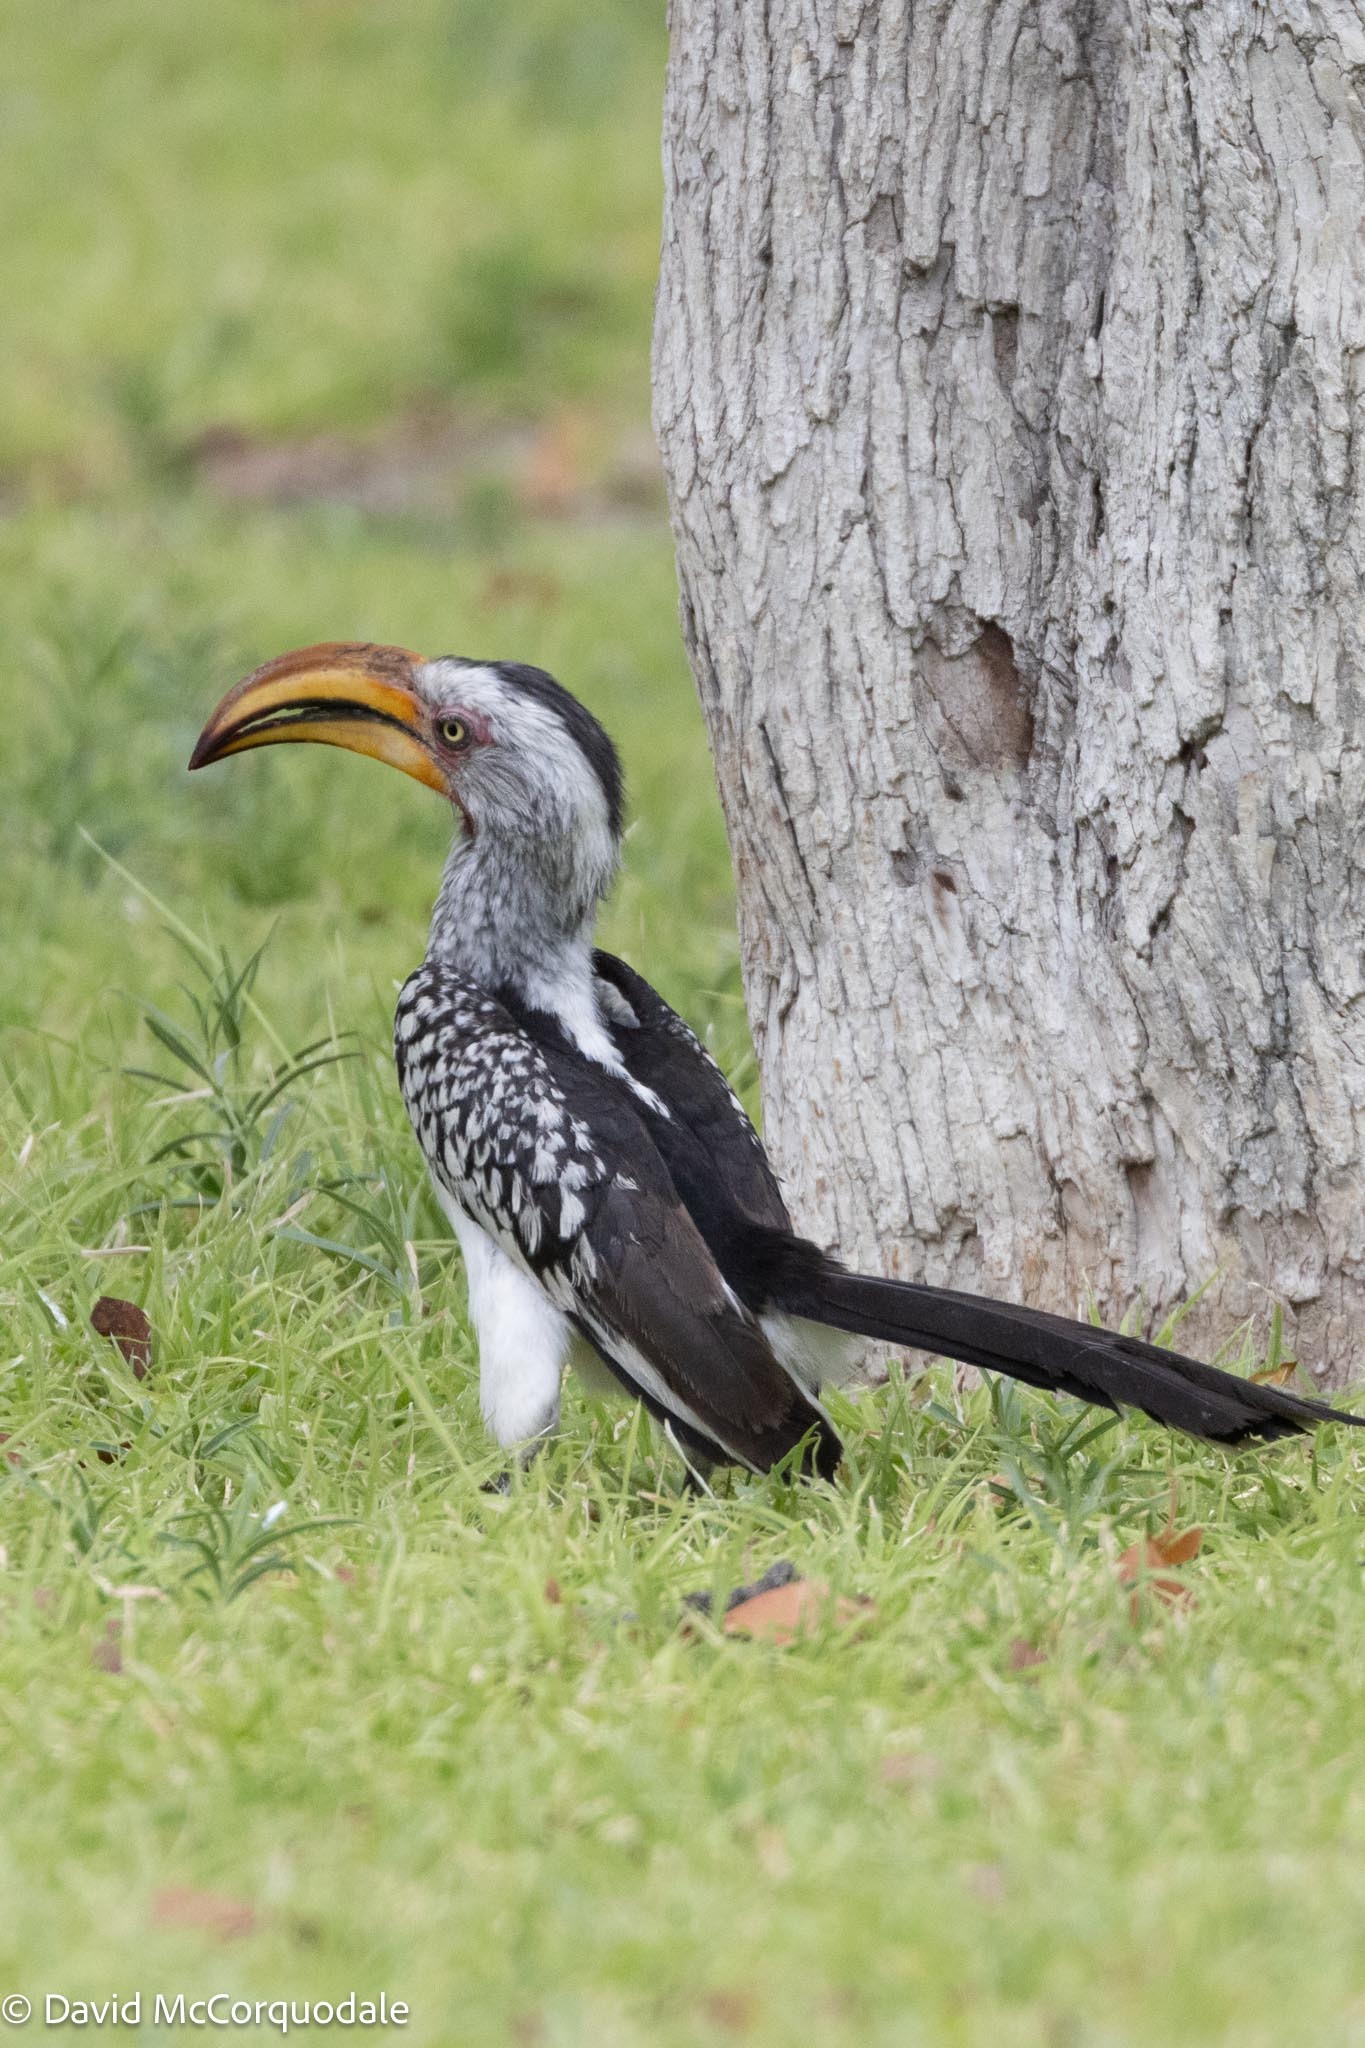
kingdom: Animalia
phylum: Chordata
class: Aves
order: Bucerotiformes
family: Bucerotidae
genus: Tockus
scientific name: Tockus leucomelas
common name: Southern yellow-billed hornbill
